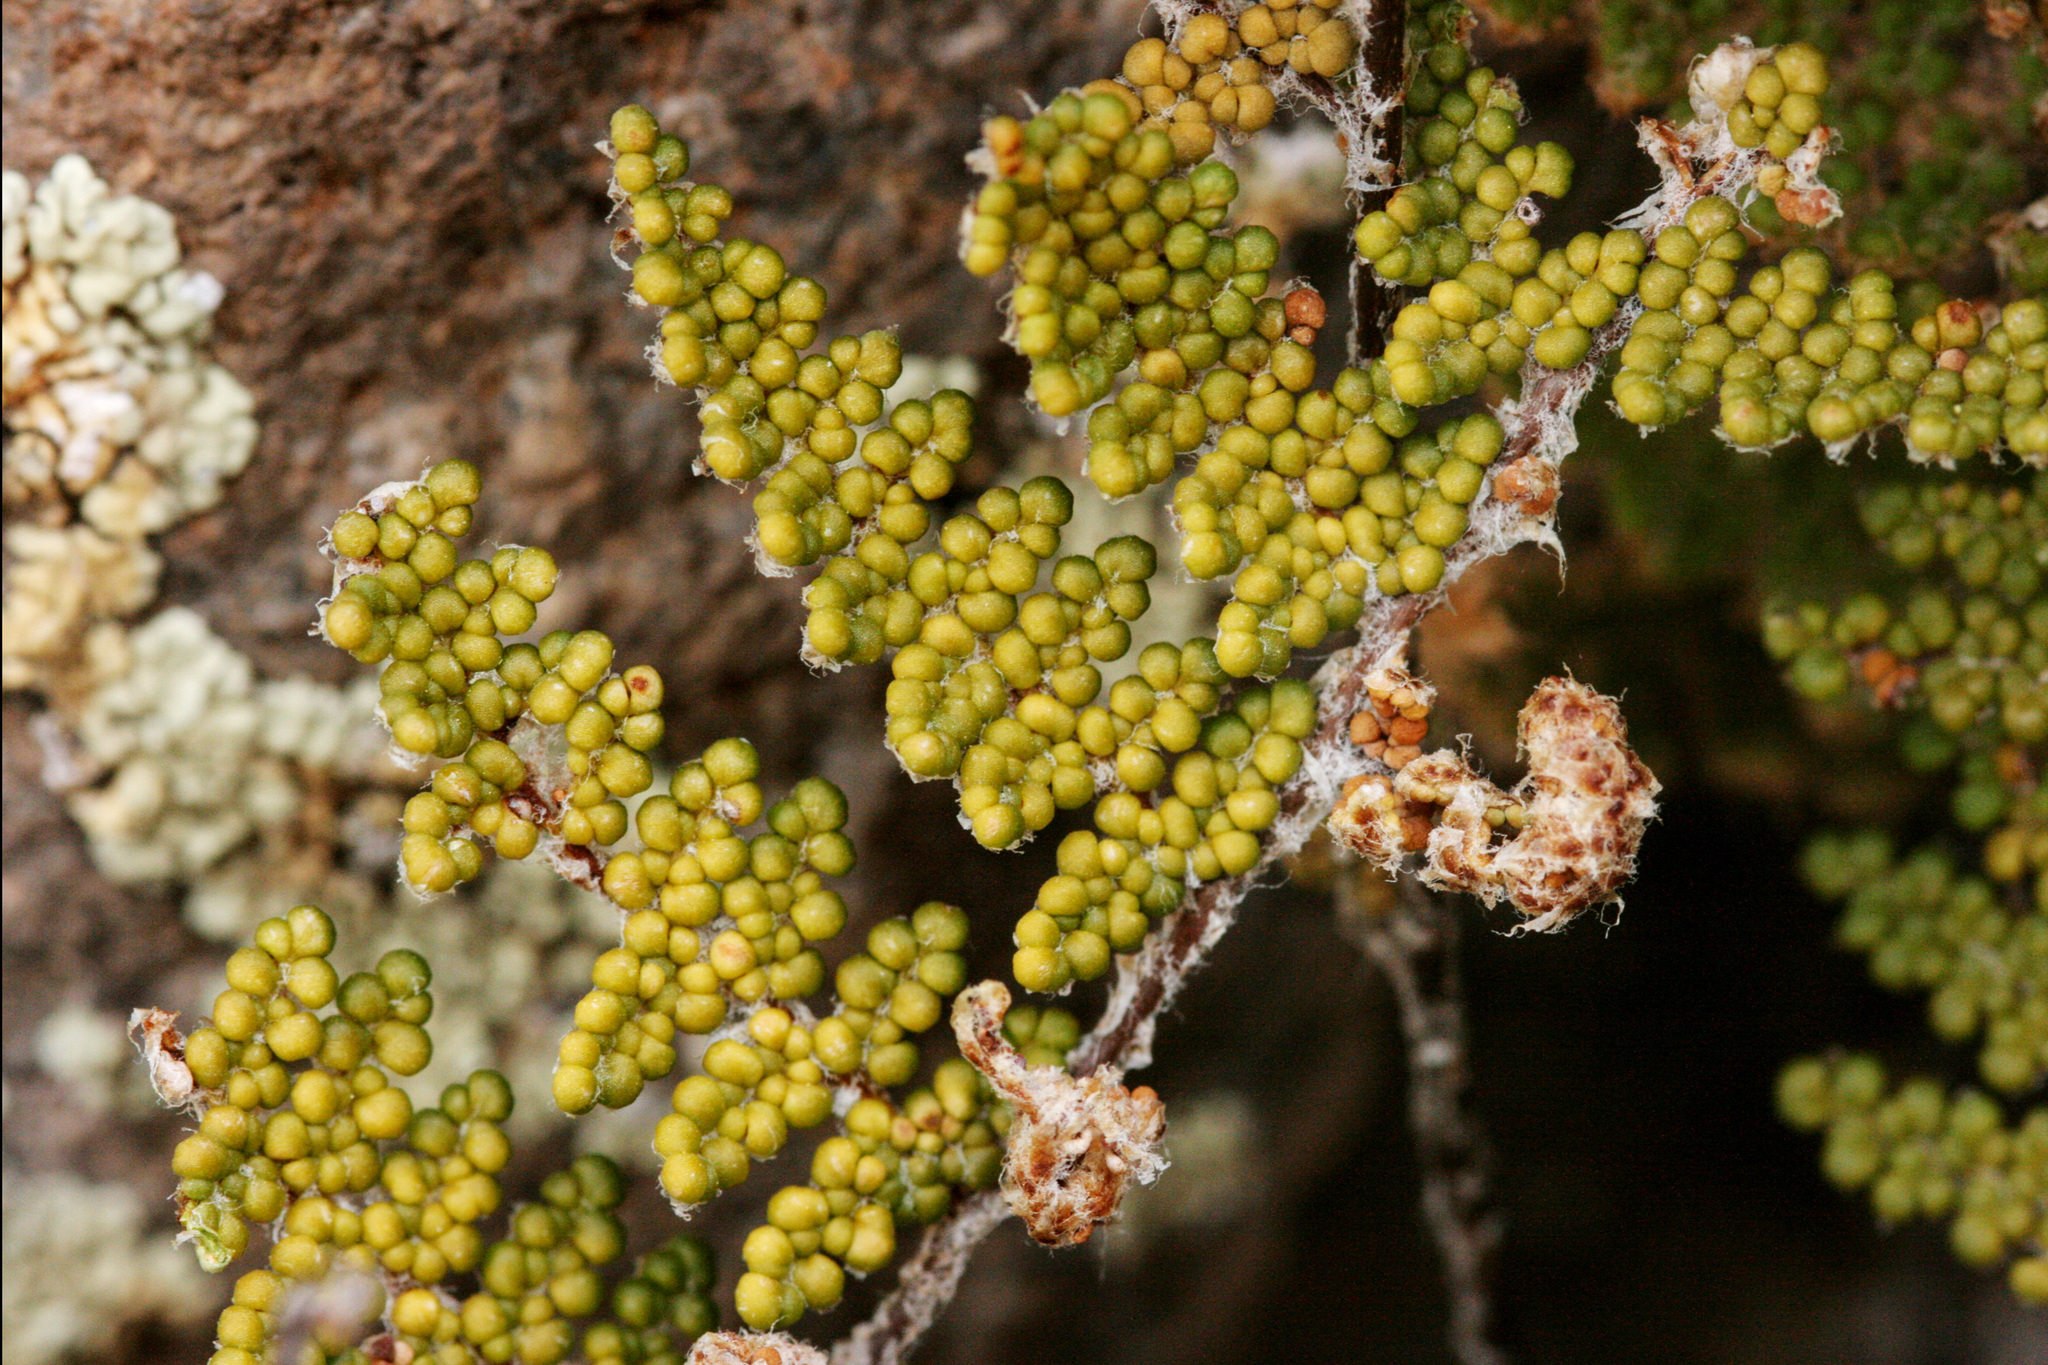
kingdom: Plantae
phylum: Tracheophyta
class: Polypodiopsida
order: Polypodiales
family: Pteridaceae
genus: Myriopteris
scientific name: Myriopteris yavapensis
